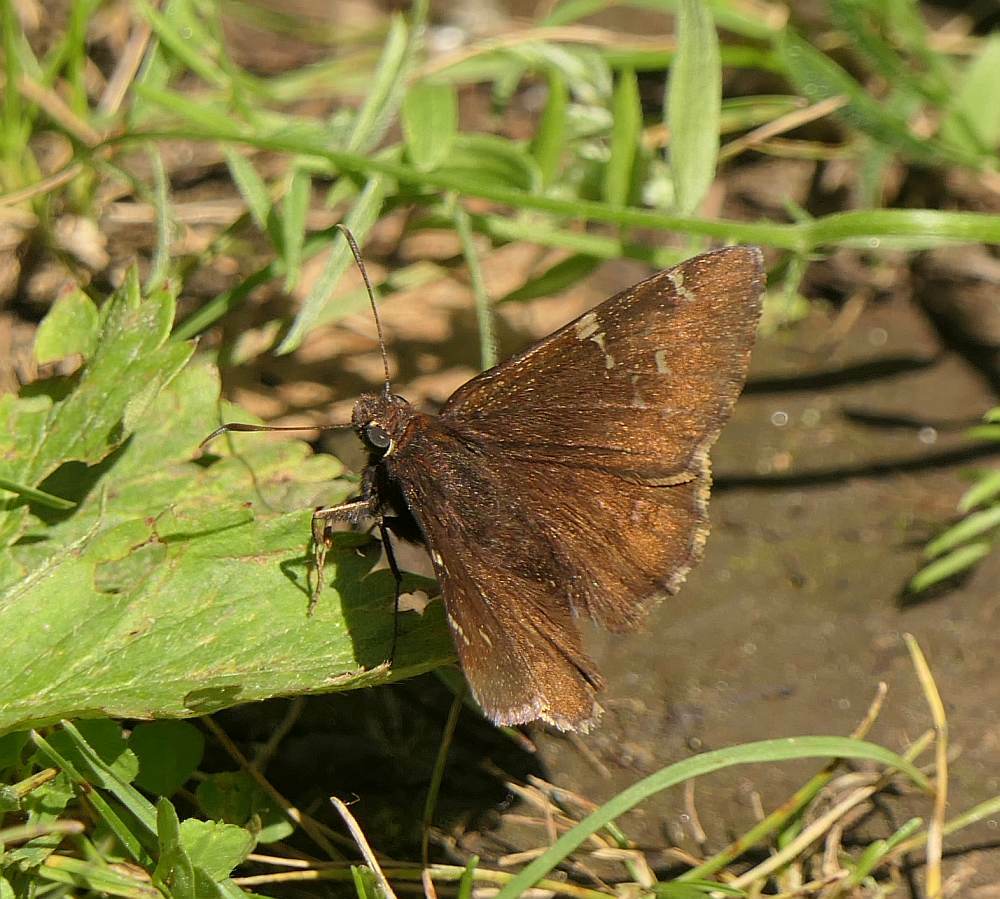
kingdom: Animalia
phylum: Arthropoda
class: Insecta
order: Lepidoptera
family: Hesperiidae
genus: Thorybes
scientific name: Thorybes pylades
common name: Northern cloudywing
